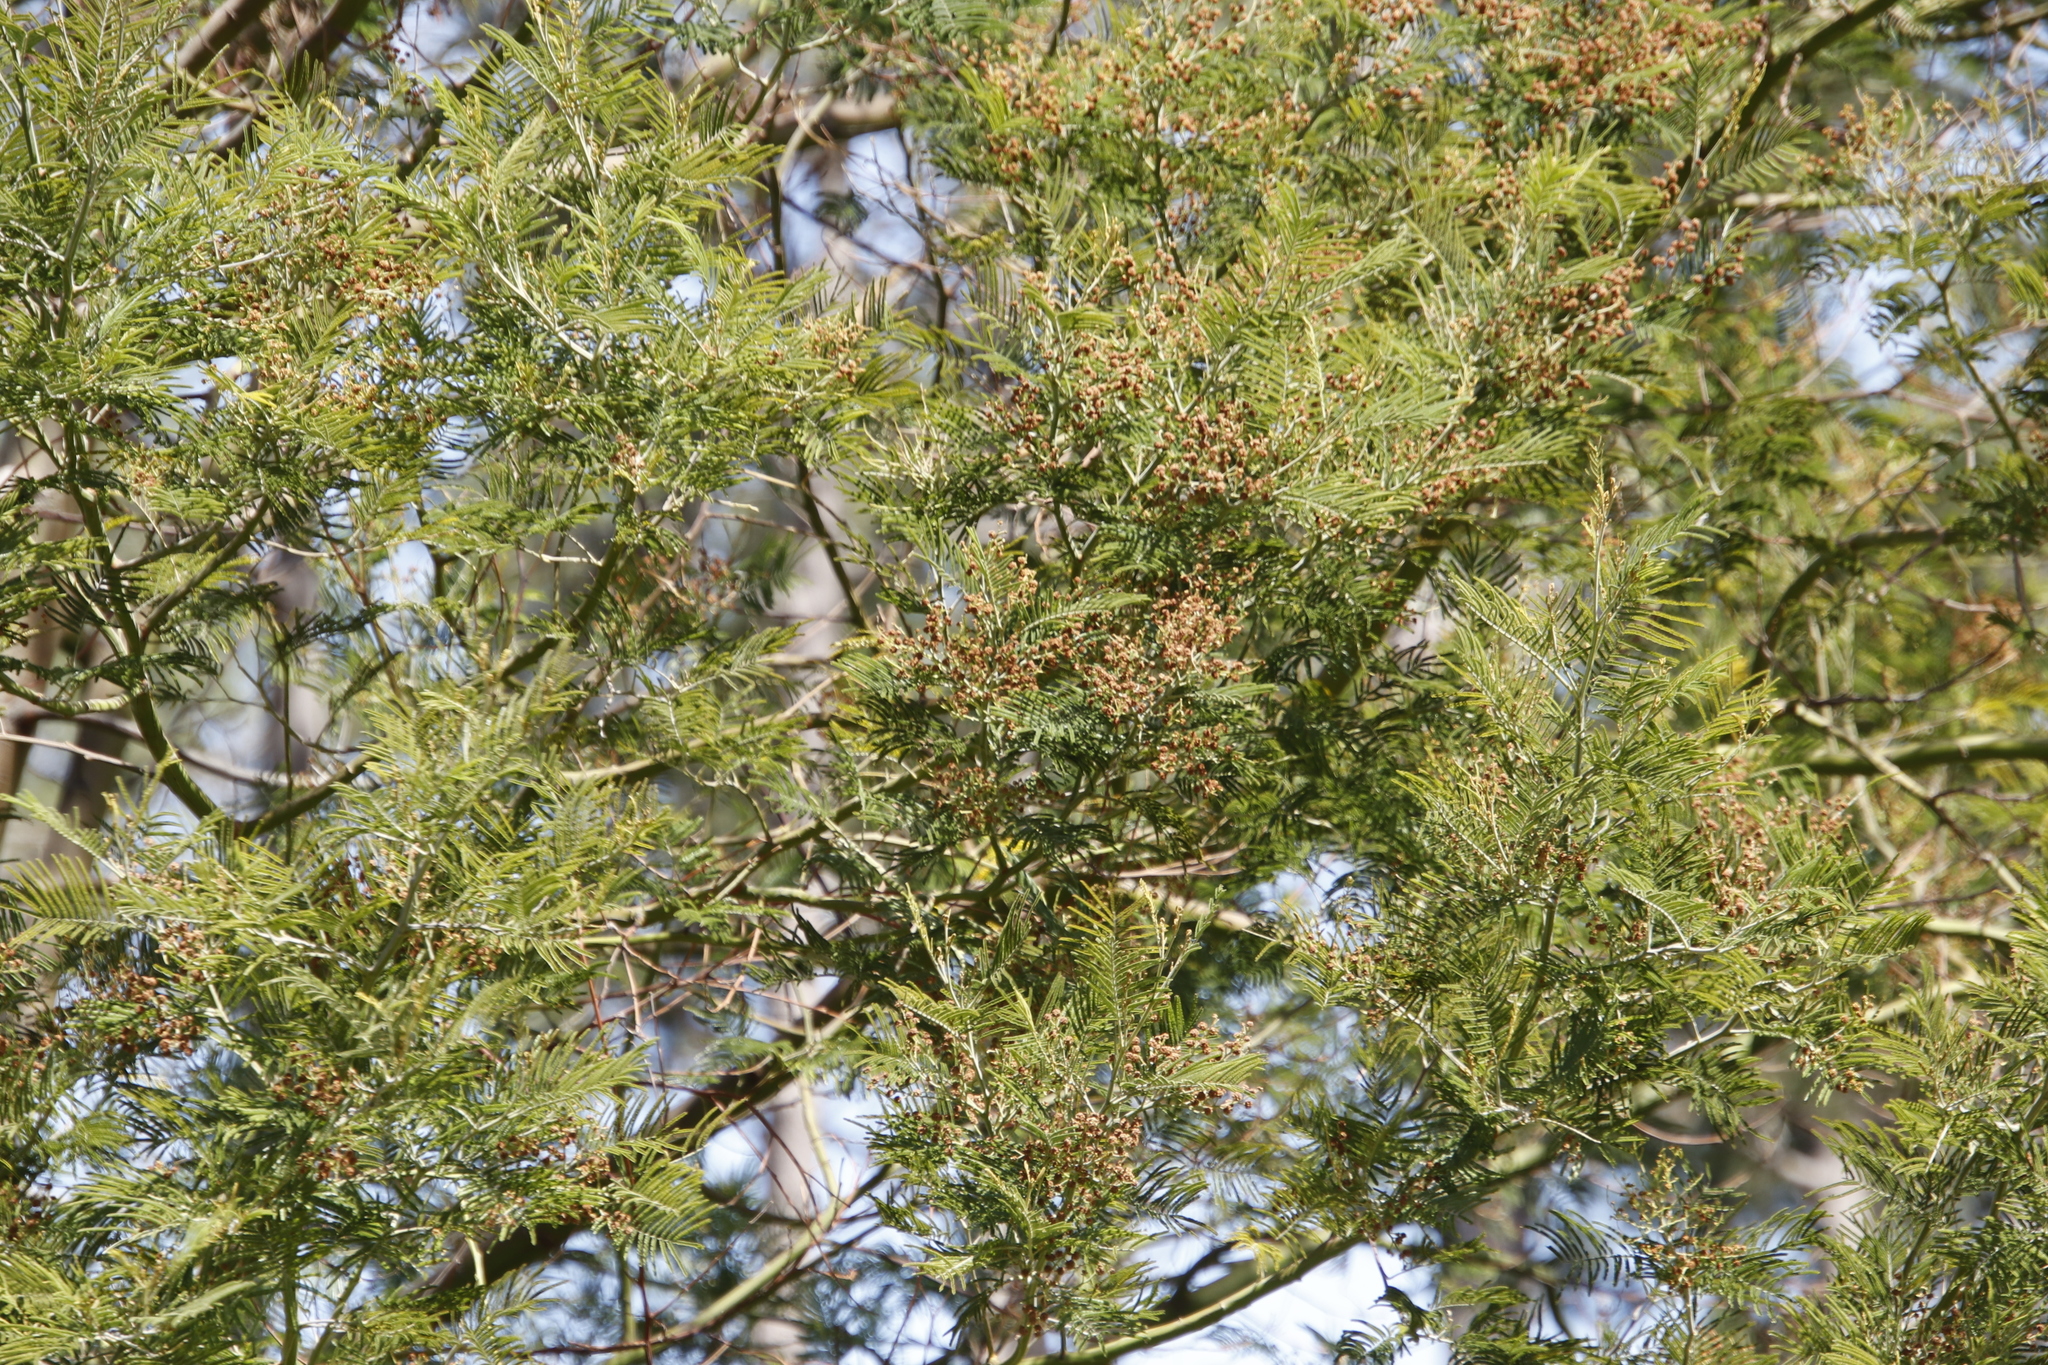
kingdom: Plantae
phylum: Tracheophyta
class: Magnoliopsida
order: Fabales
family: Fabaceae
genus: Acacia
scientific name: Acacia mearnsii
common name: Black wattle
